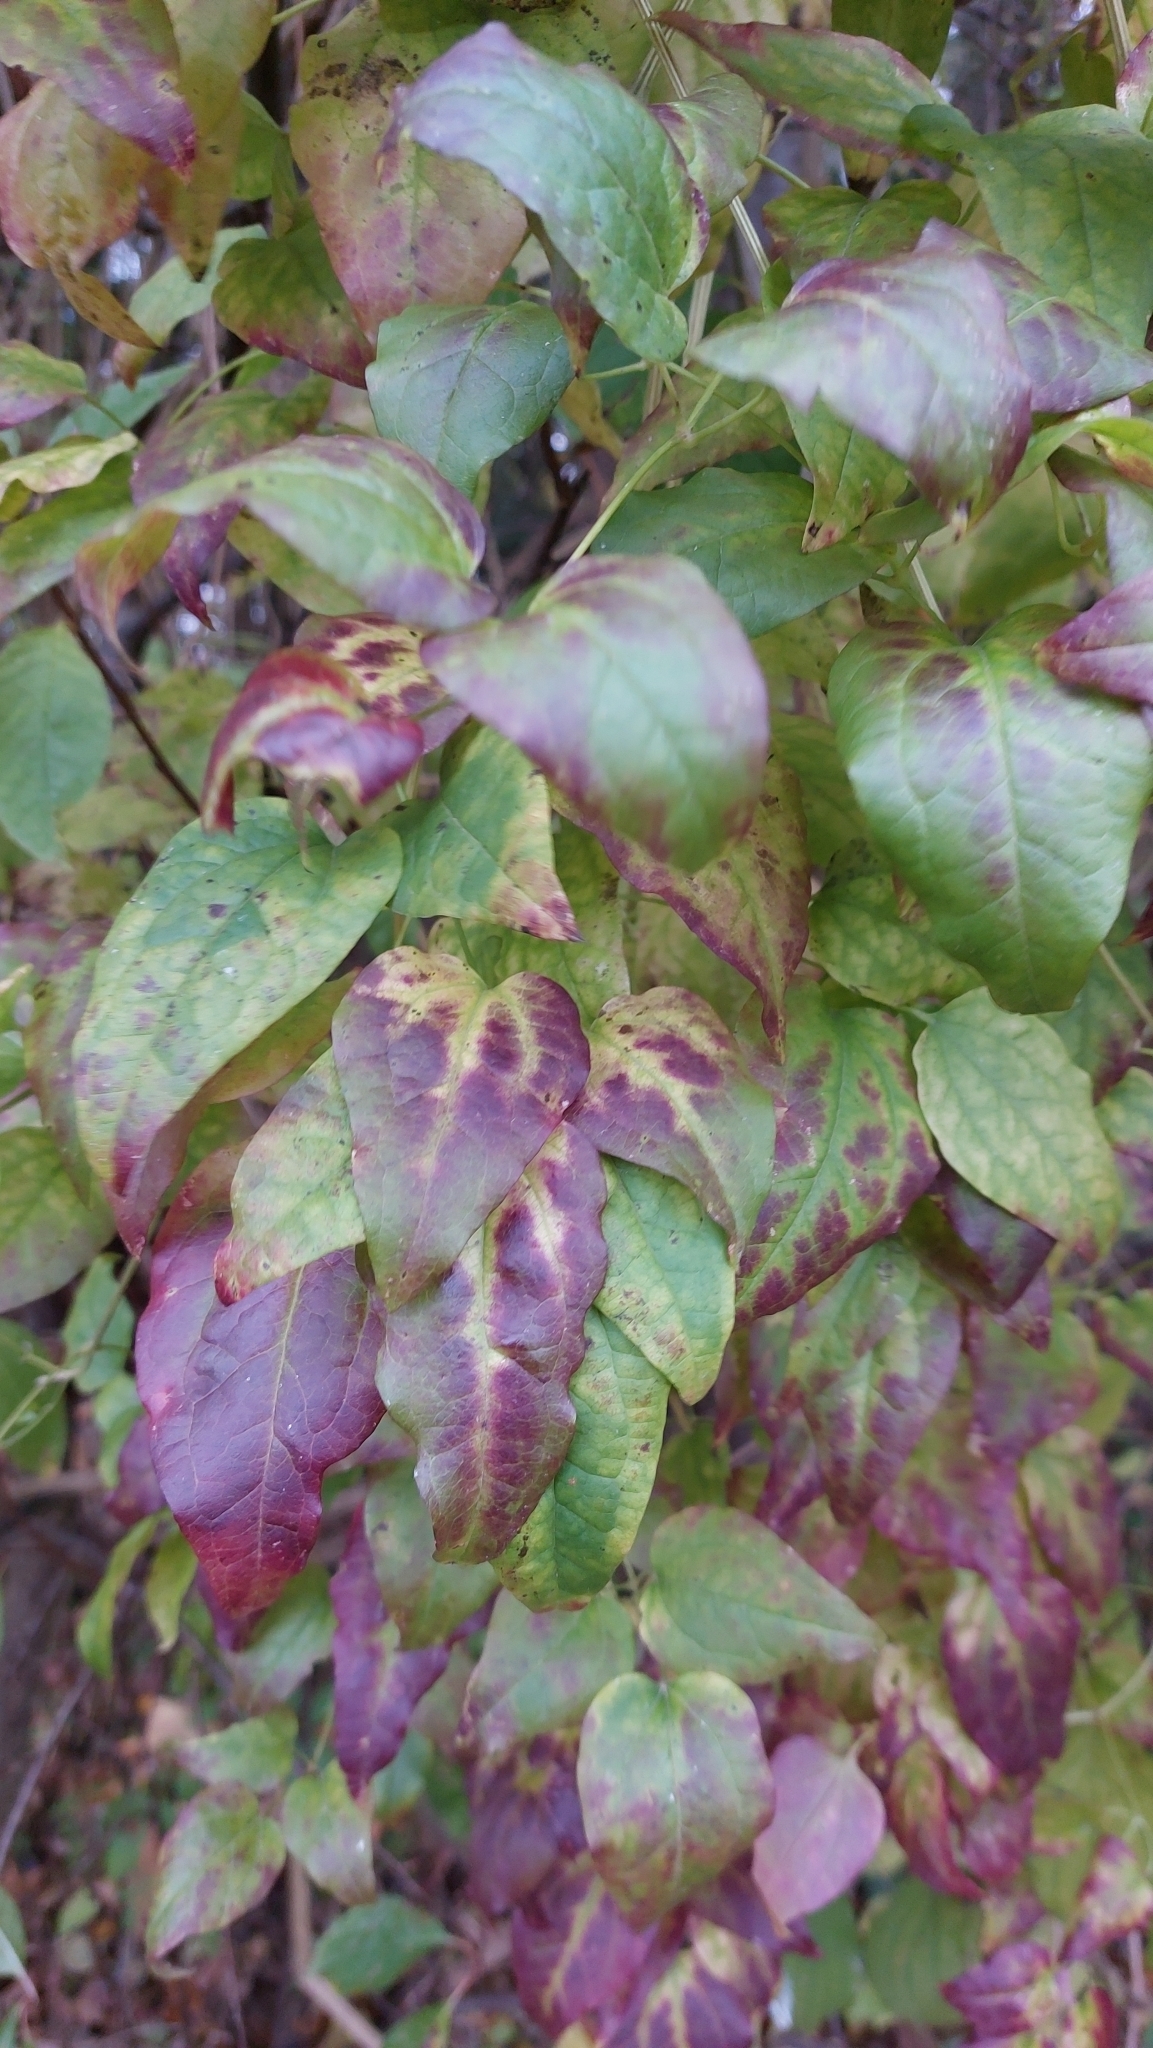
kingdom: Plantae
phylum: Tracheophyta
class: Magnoliopsida
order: Ranunculales
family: Ranunculaceae
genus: Clematis
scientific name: Clematis vitalba
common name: Evergreen clematis
